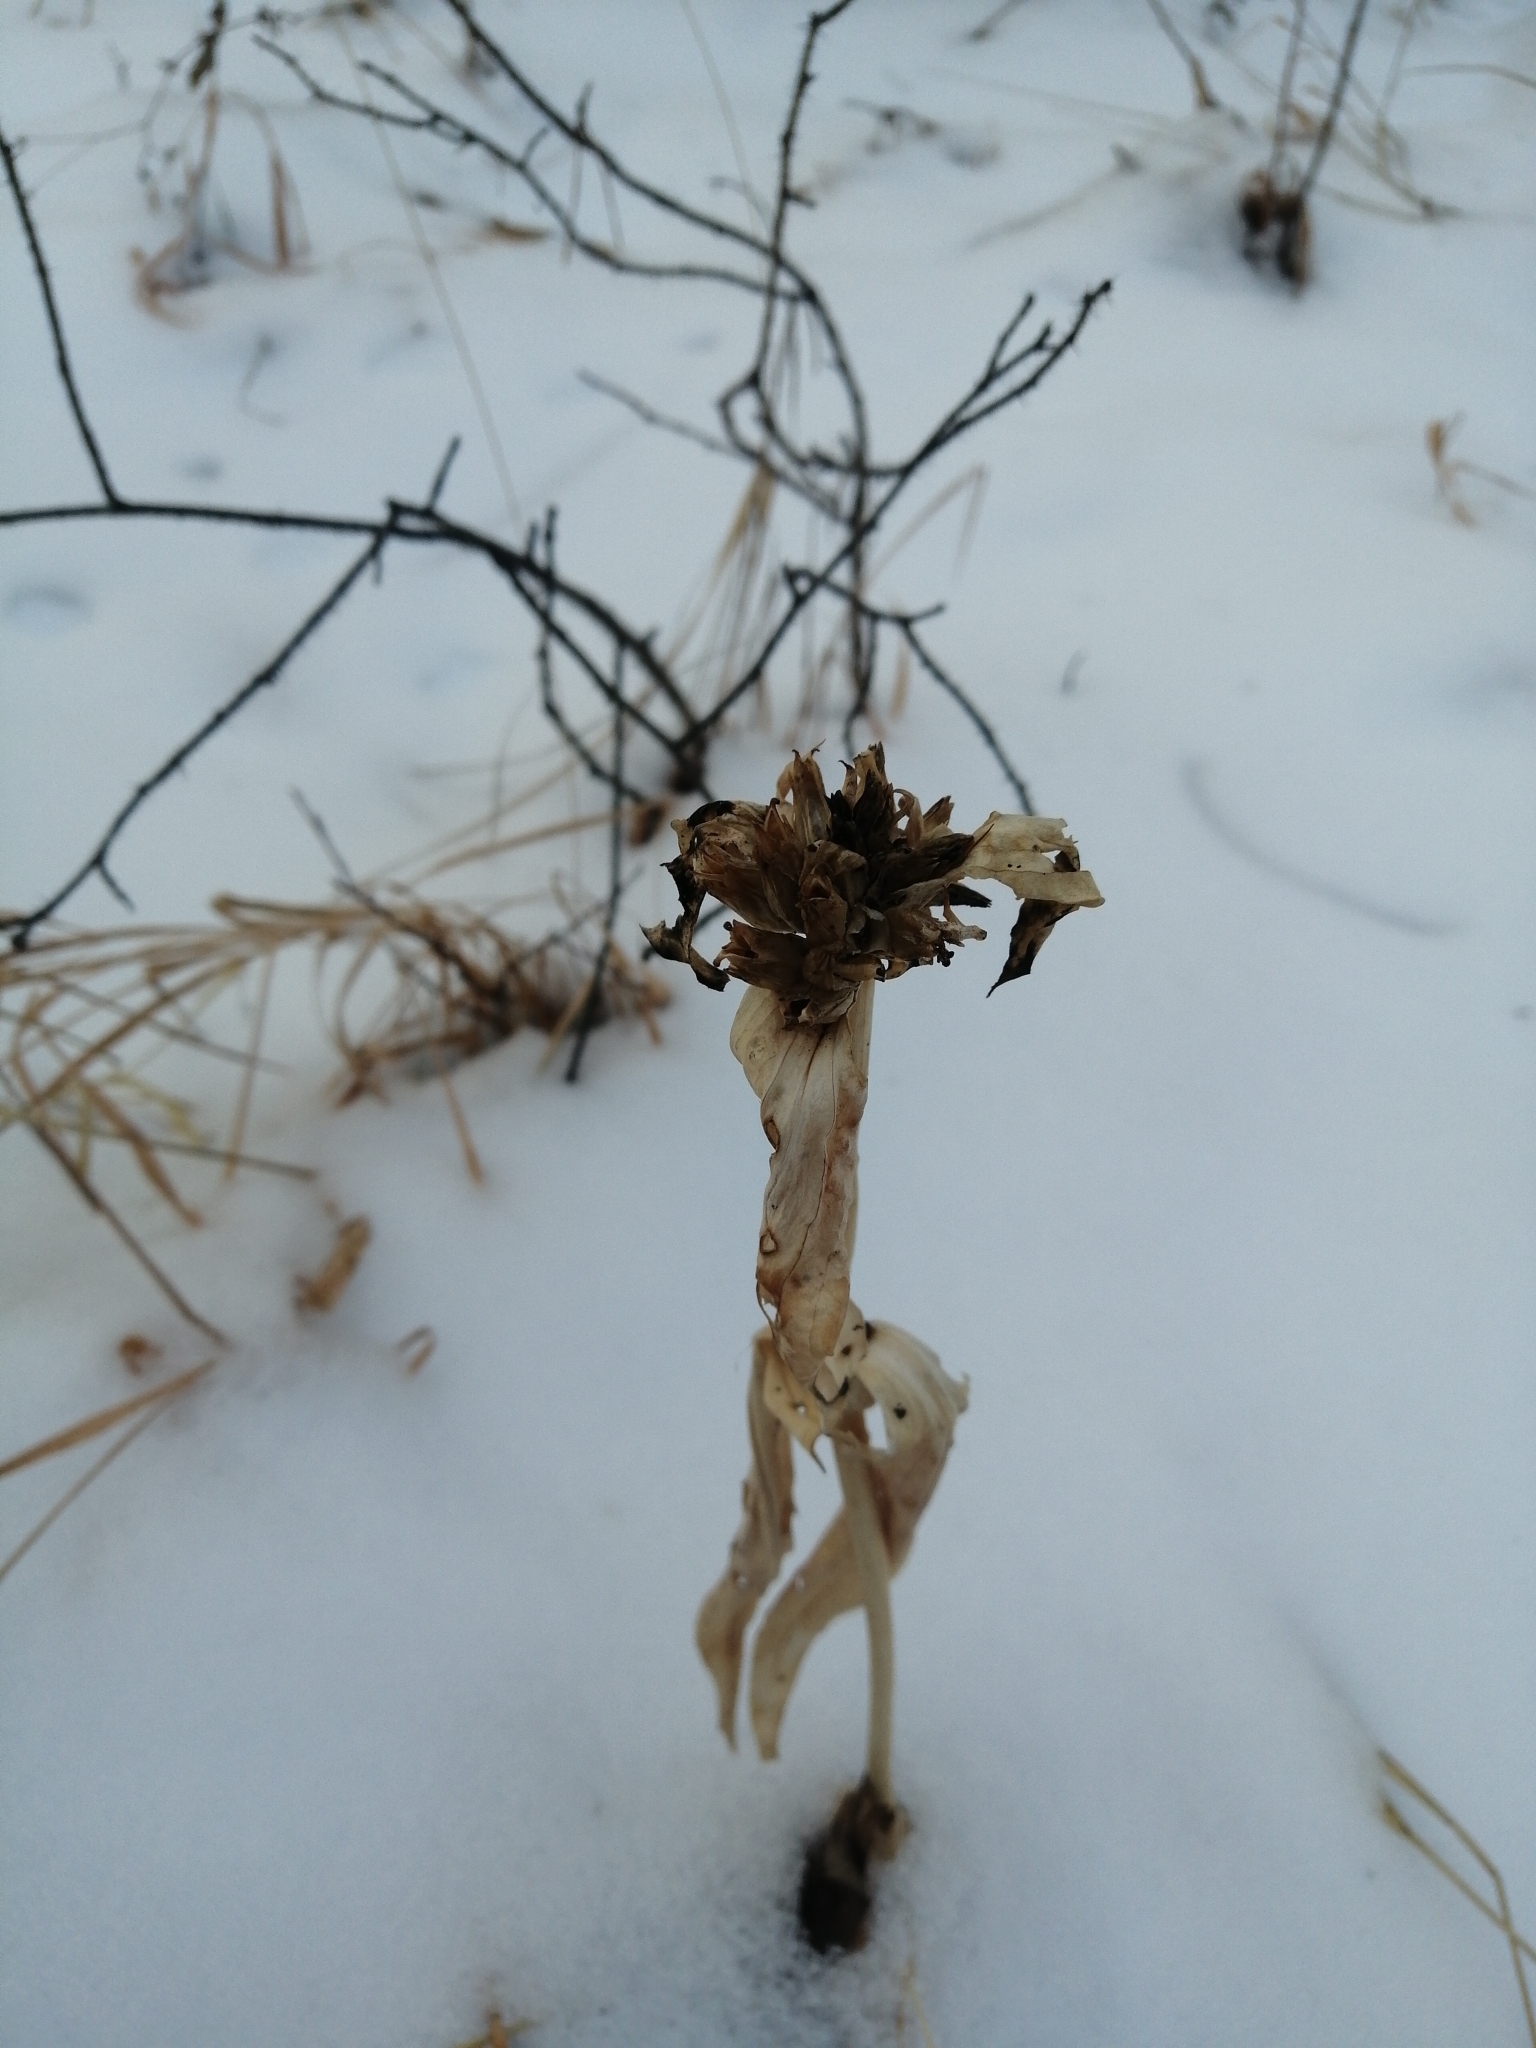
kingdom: Plantae
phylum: Tracheophyta
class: Magnoliopsida
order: Gentianales
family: Gentianaceae
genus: Gentiana
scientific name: Gentiana macrophylla
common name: Large-leaf gentian
